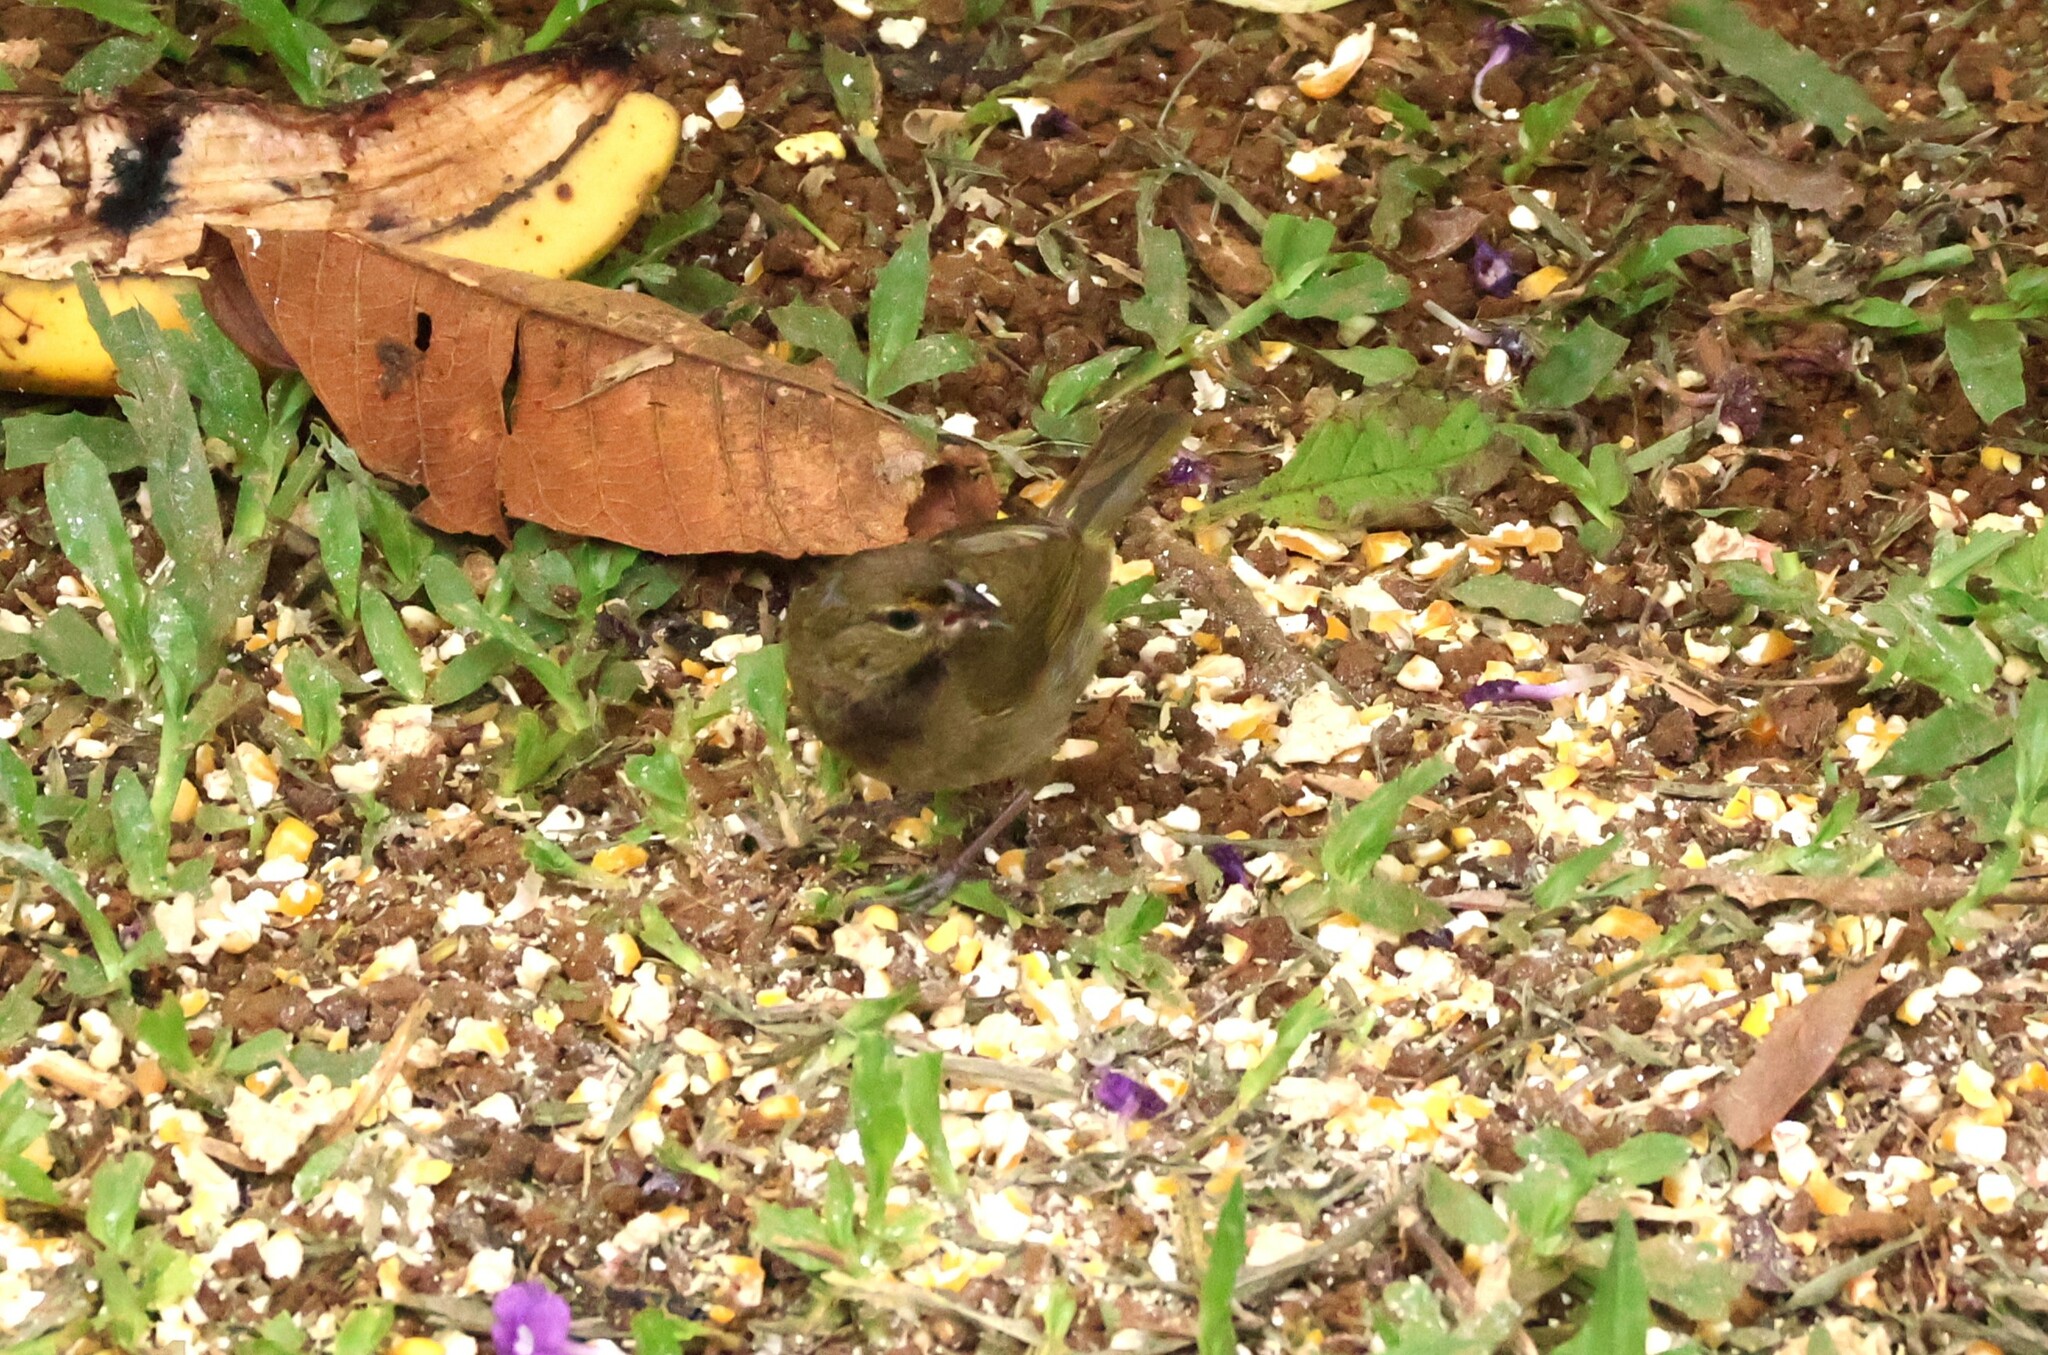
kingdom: Animalia
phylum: Chordata
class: Aves
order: Passeriformes
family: Thraupidae
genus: Tiaris
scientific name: Tiaris olivaceus
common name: Yellow-faced grassquit
